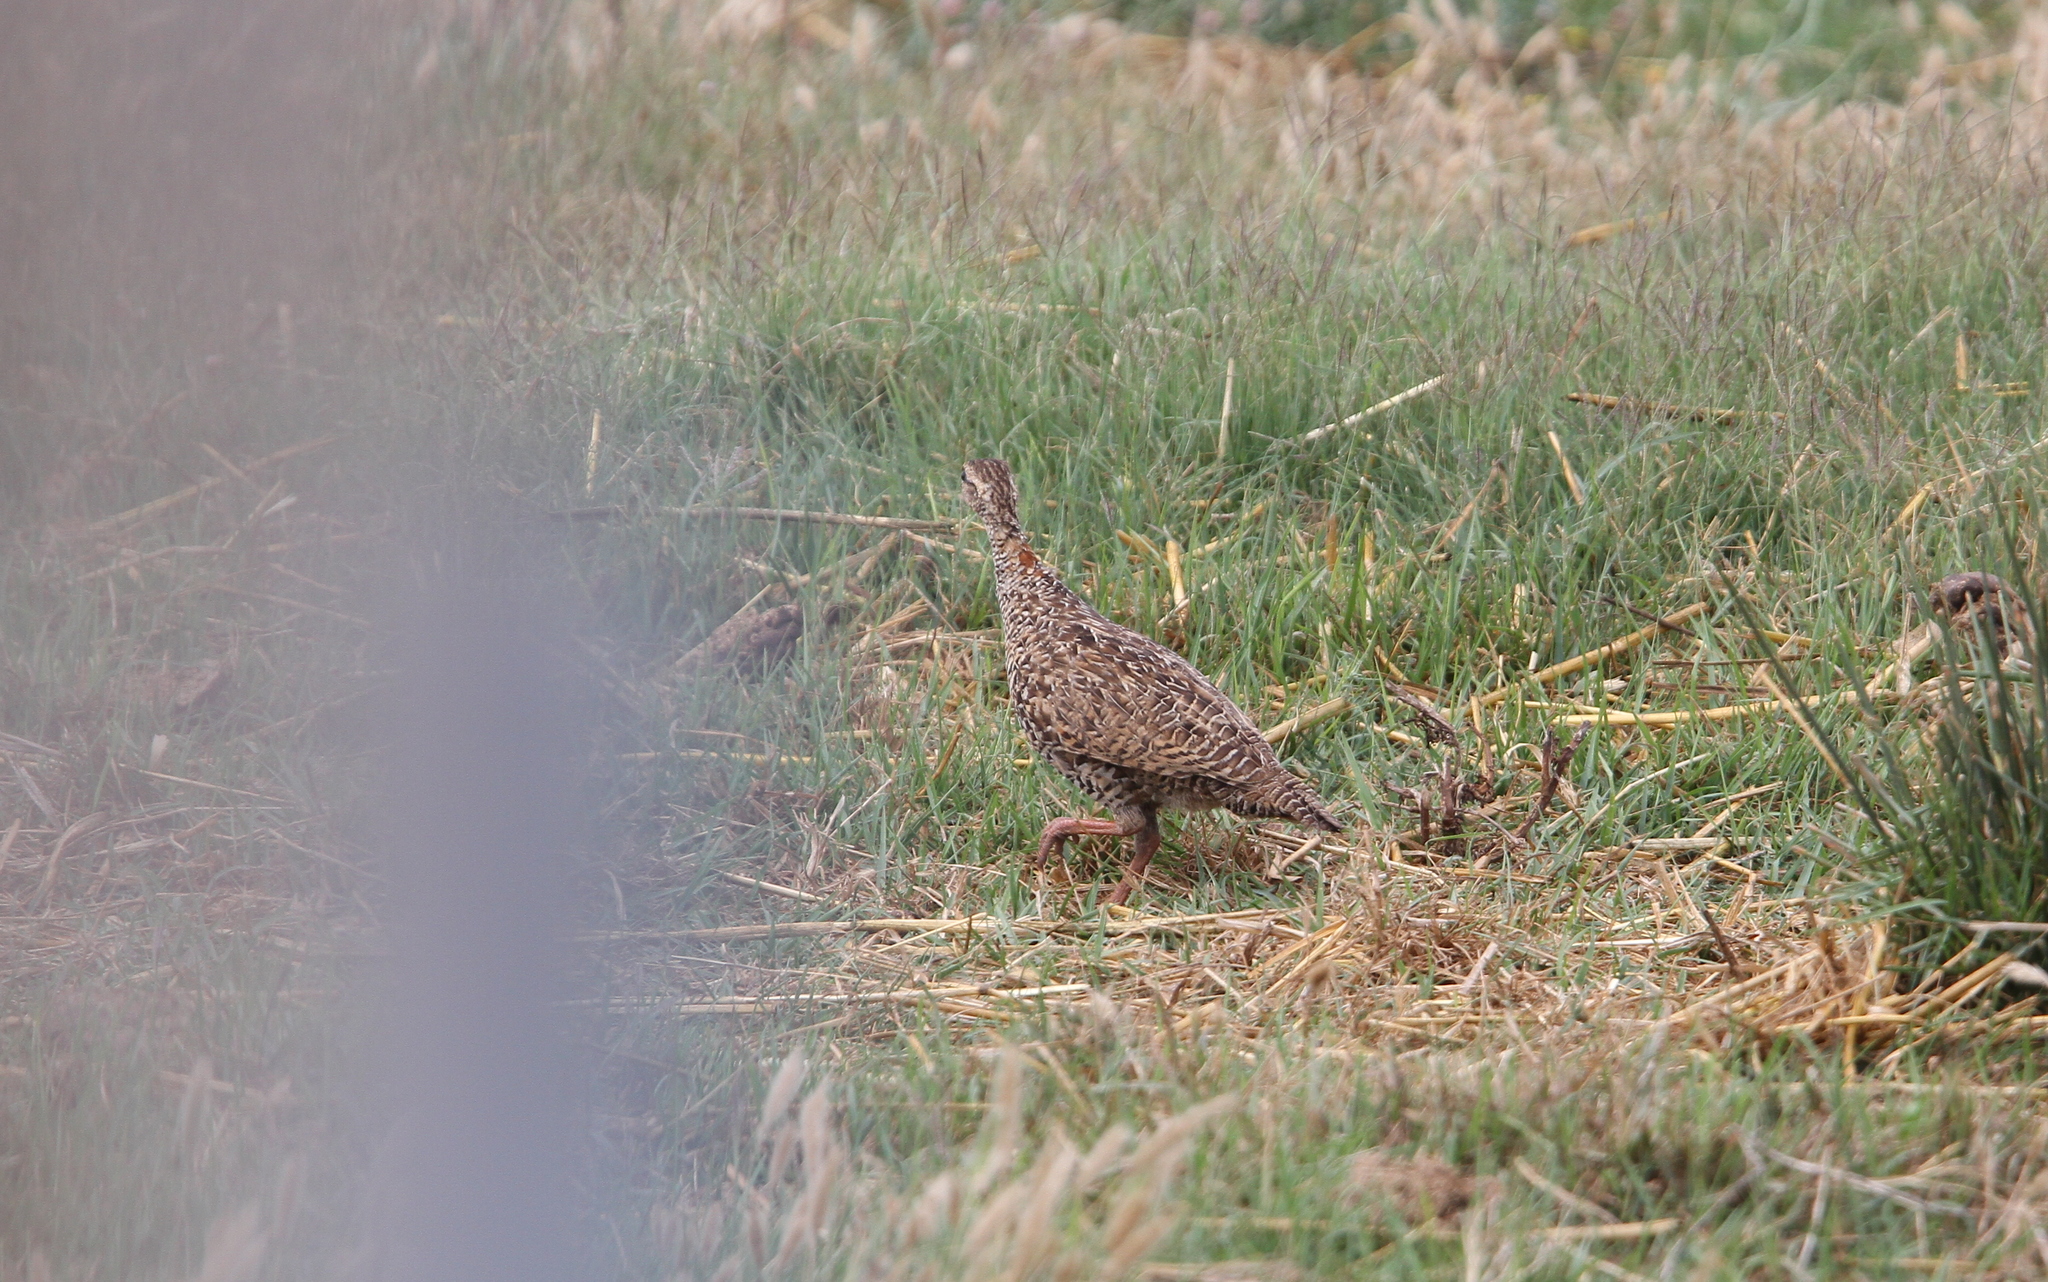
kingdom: Animalia
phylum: Chordata
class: Aves
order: Galliformes
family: Phasianidae
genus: Francolinus
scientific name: Francolinus francolinus
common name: Black francolin
